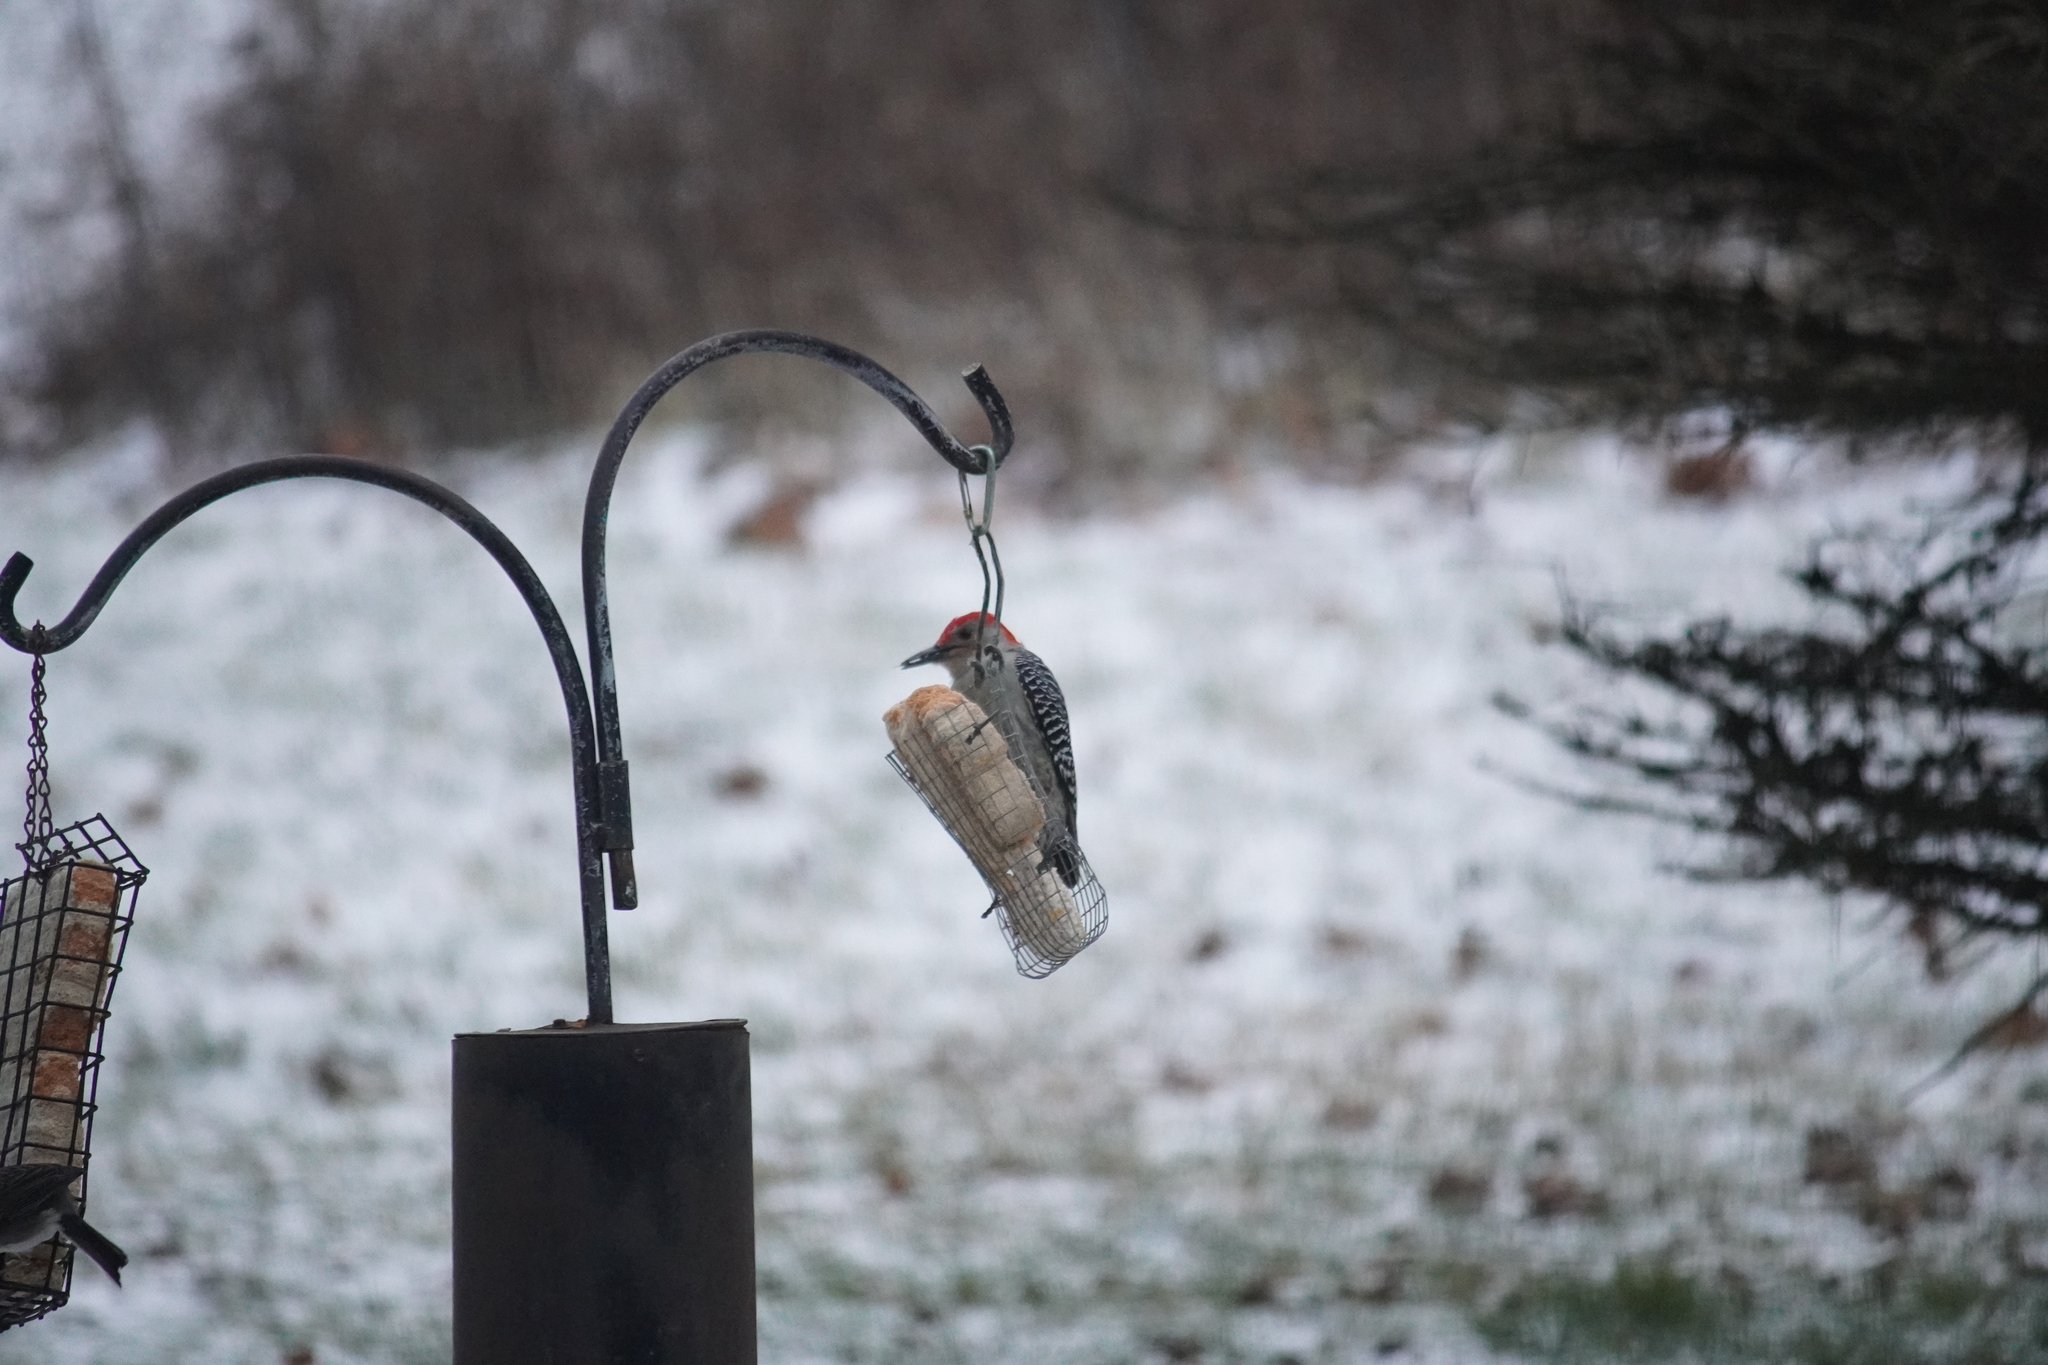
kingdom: Animalia
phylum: Chordata
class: Aves
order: Piciformes
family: Picidae
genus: Melanerpes
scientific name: Melanerpes carolinus
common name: Red-bellied woodpecker
